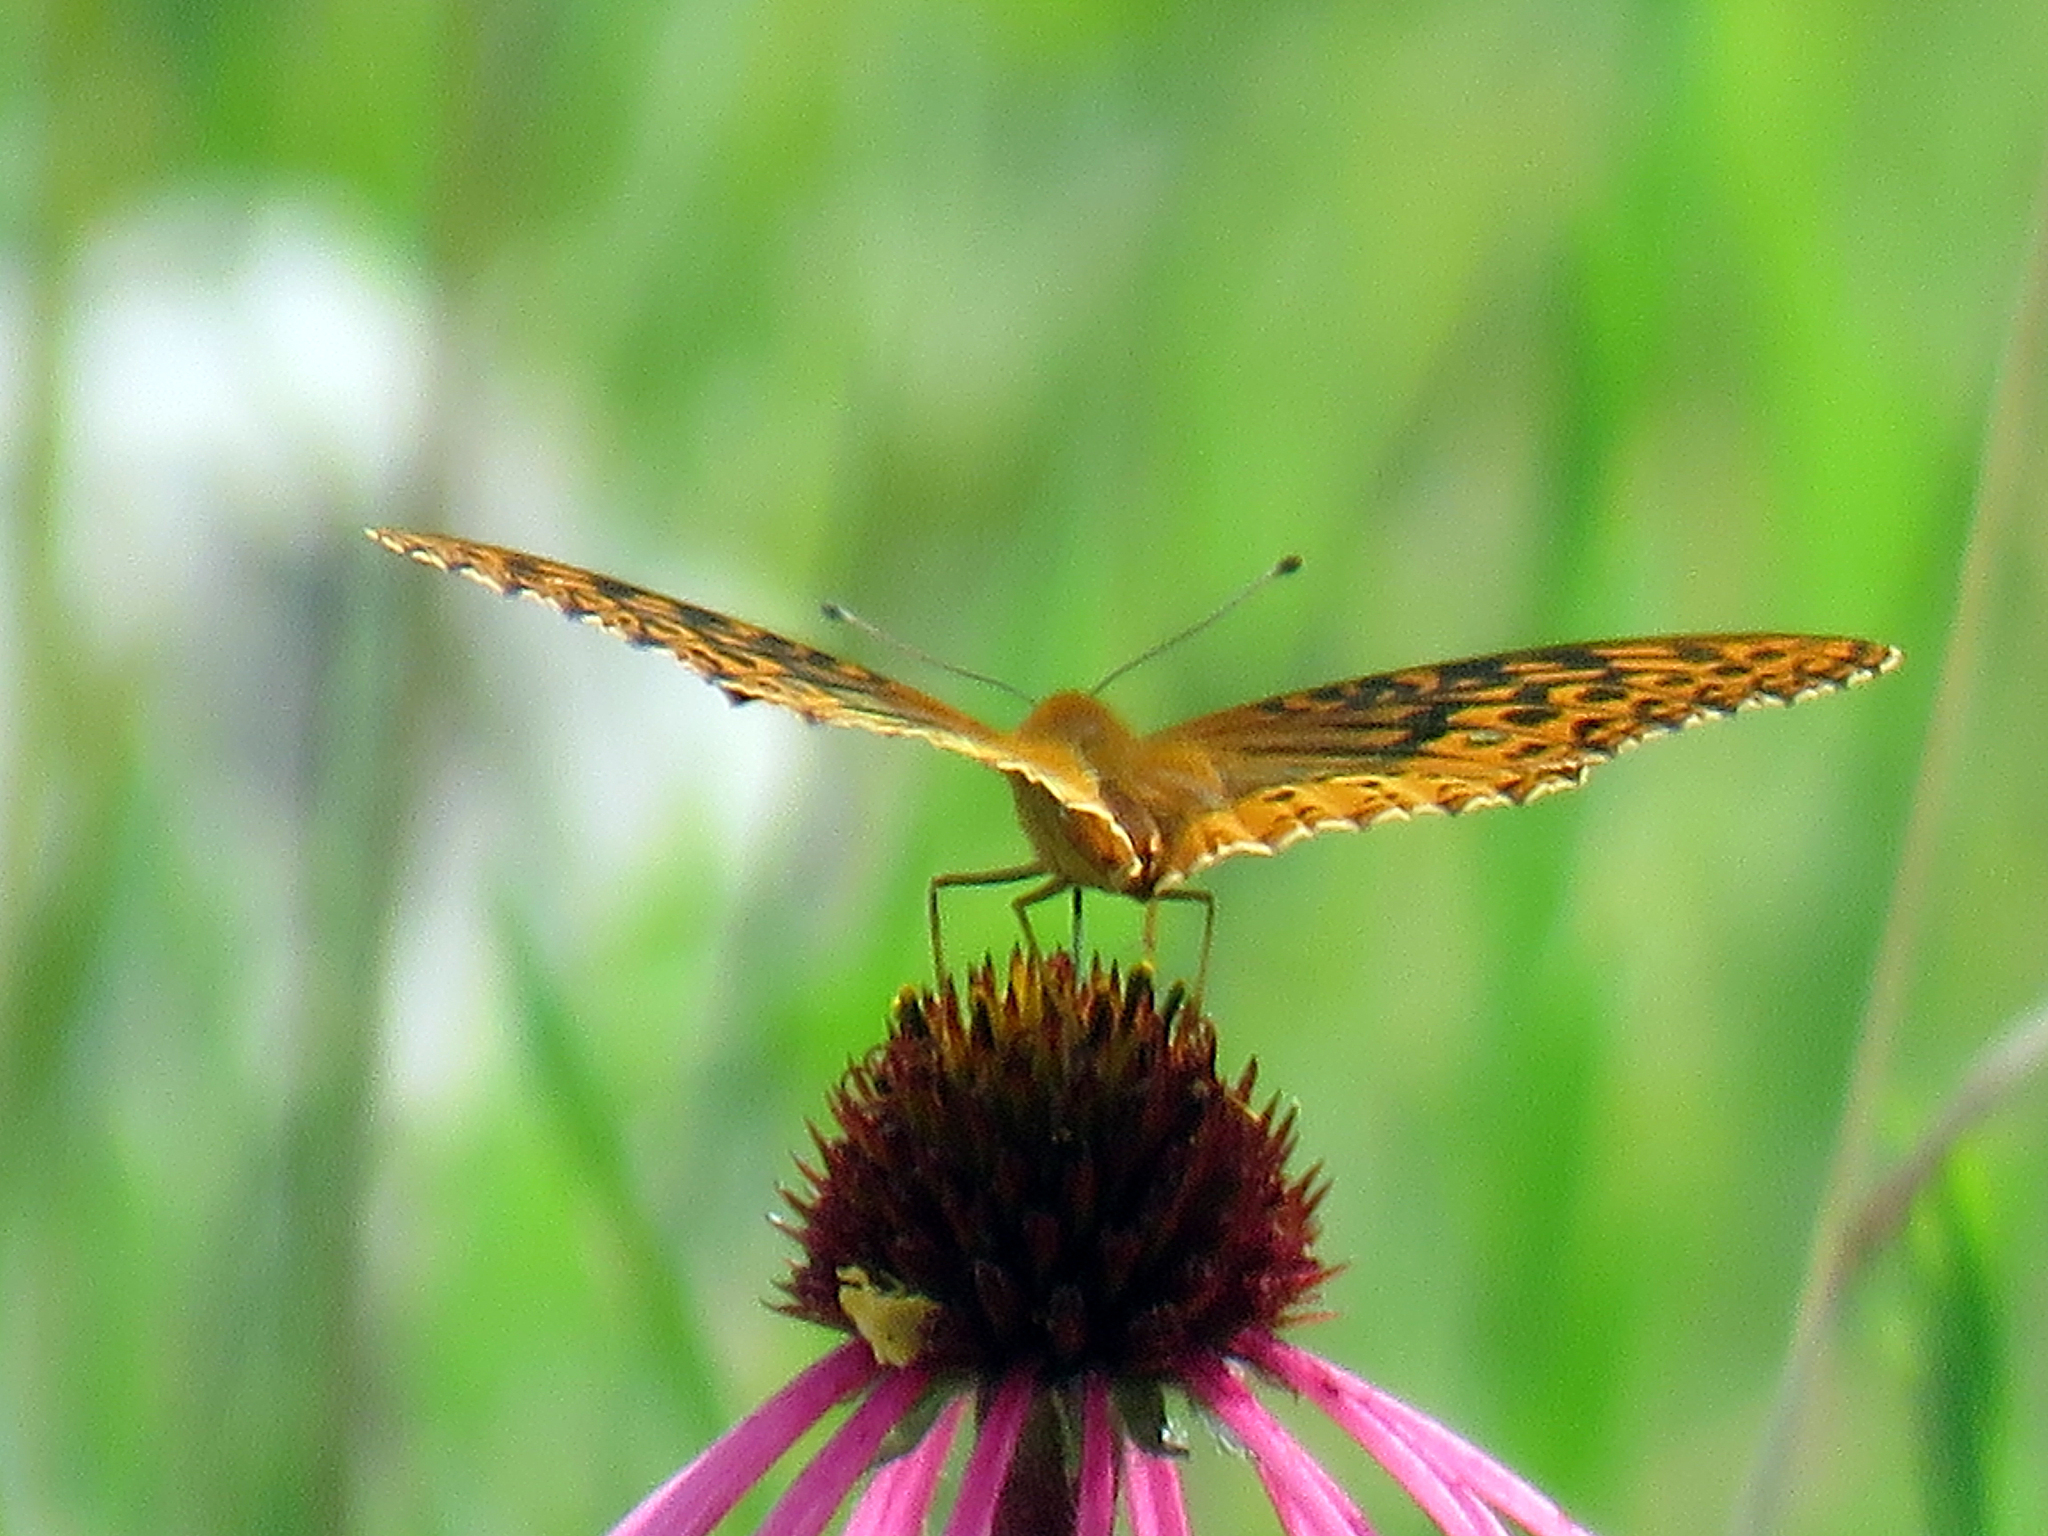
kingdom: Animalia
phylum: Arthropoda
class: Insecta
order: Lepidoptera
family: Nymphalidae
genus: Speyeria
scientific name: Speyeria cybele
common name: Great spangled fritillary
